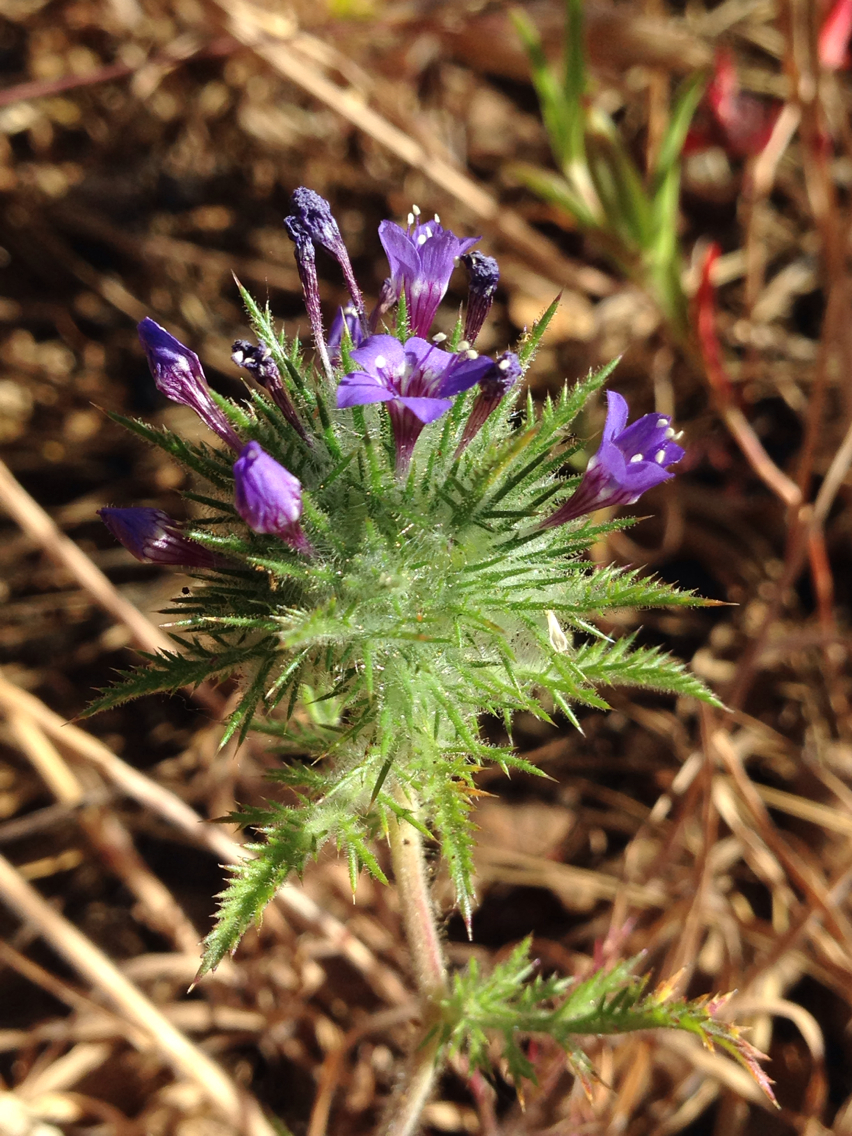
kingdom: Plantae
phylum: Tracheophyta
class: Magnoliopsida
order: Ericales
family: Polemoniaceae
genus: Navarretia
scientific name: Navarretia pubescens
